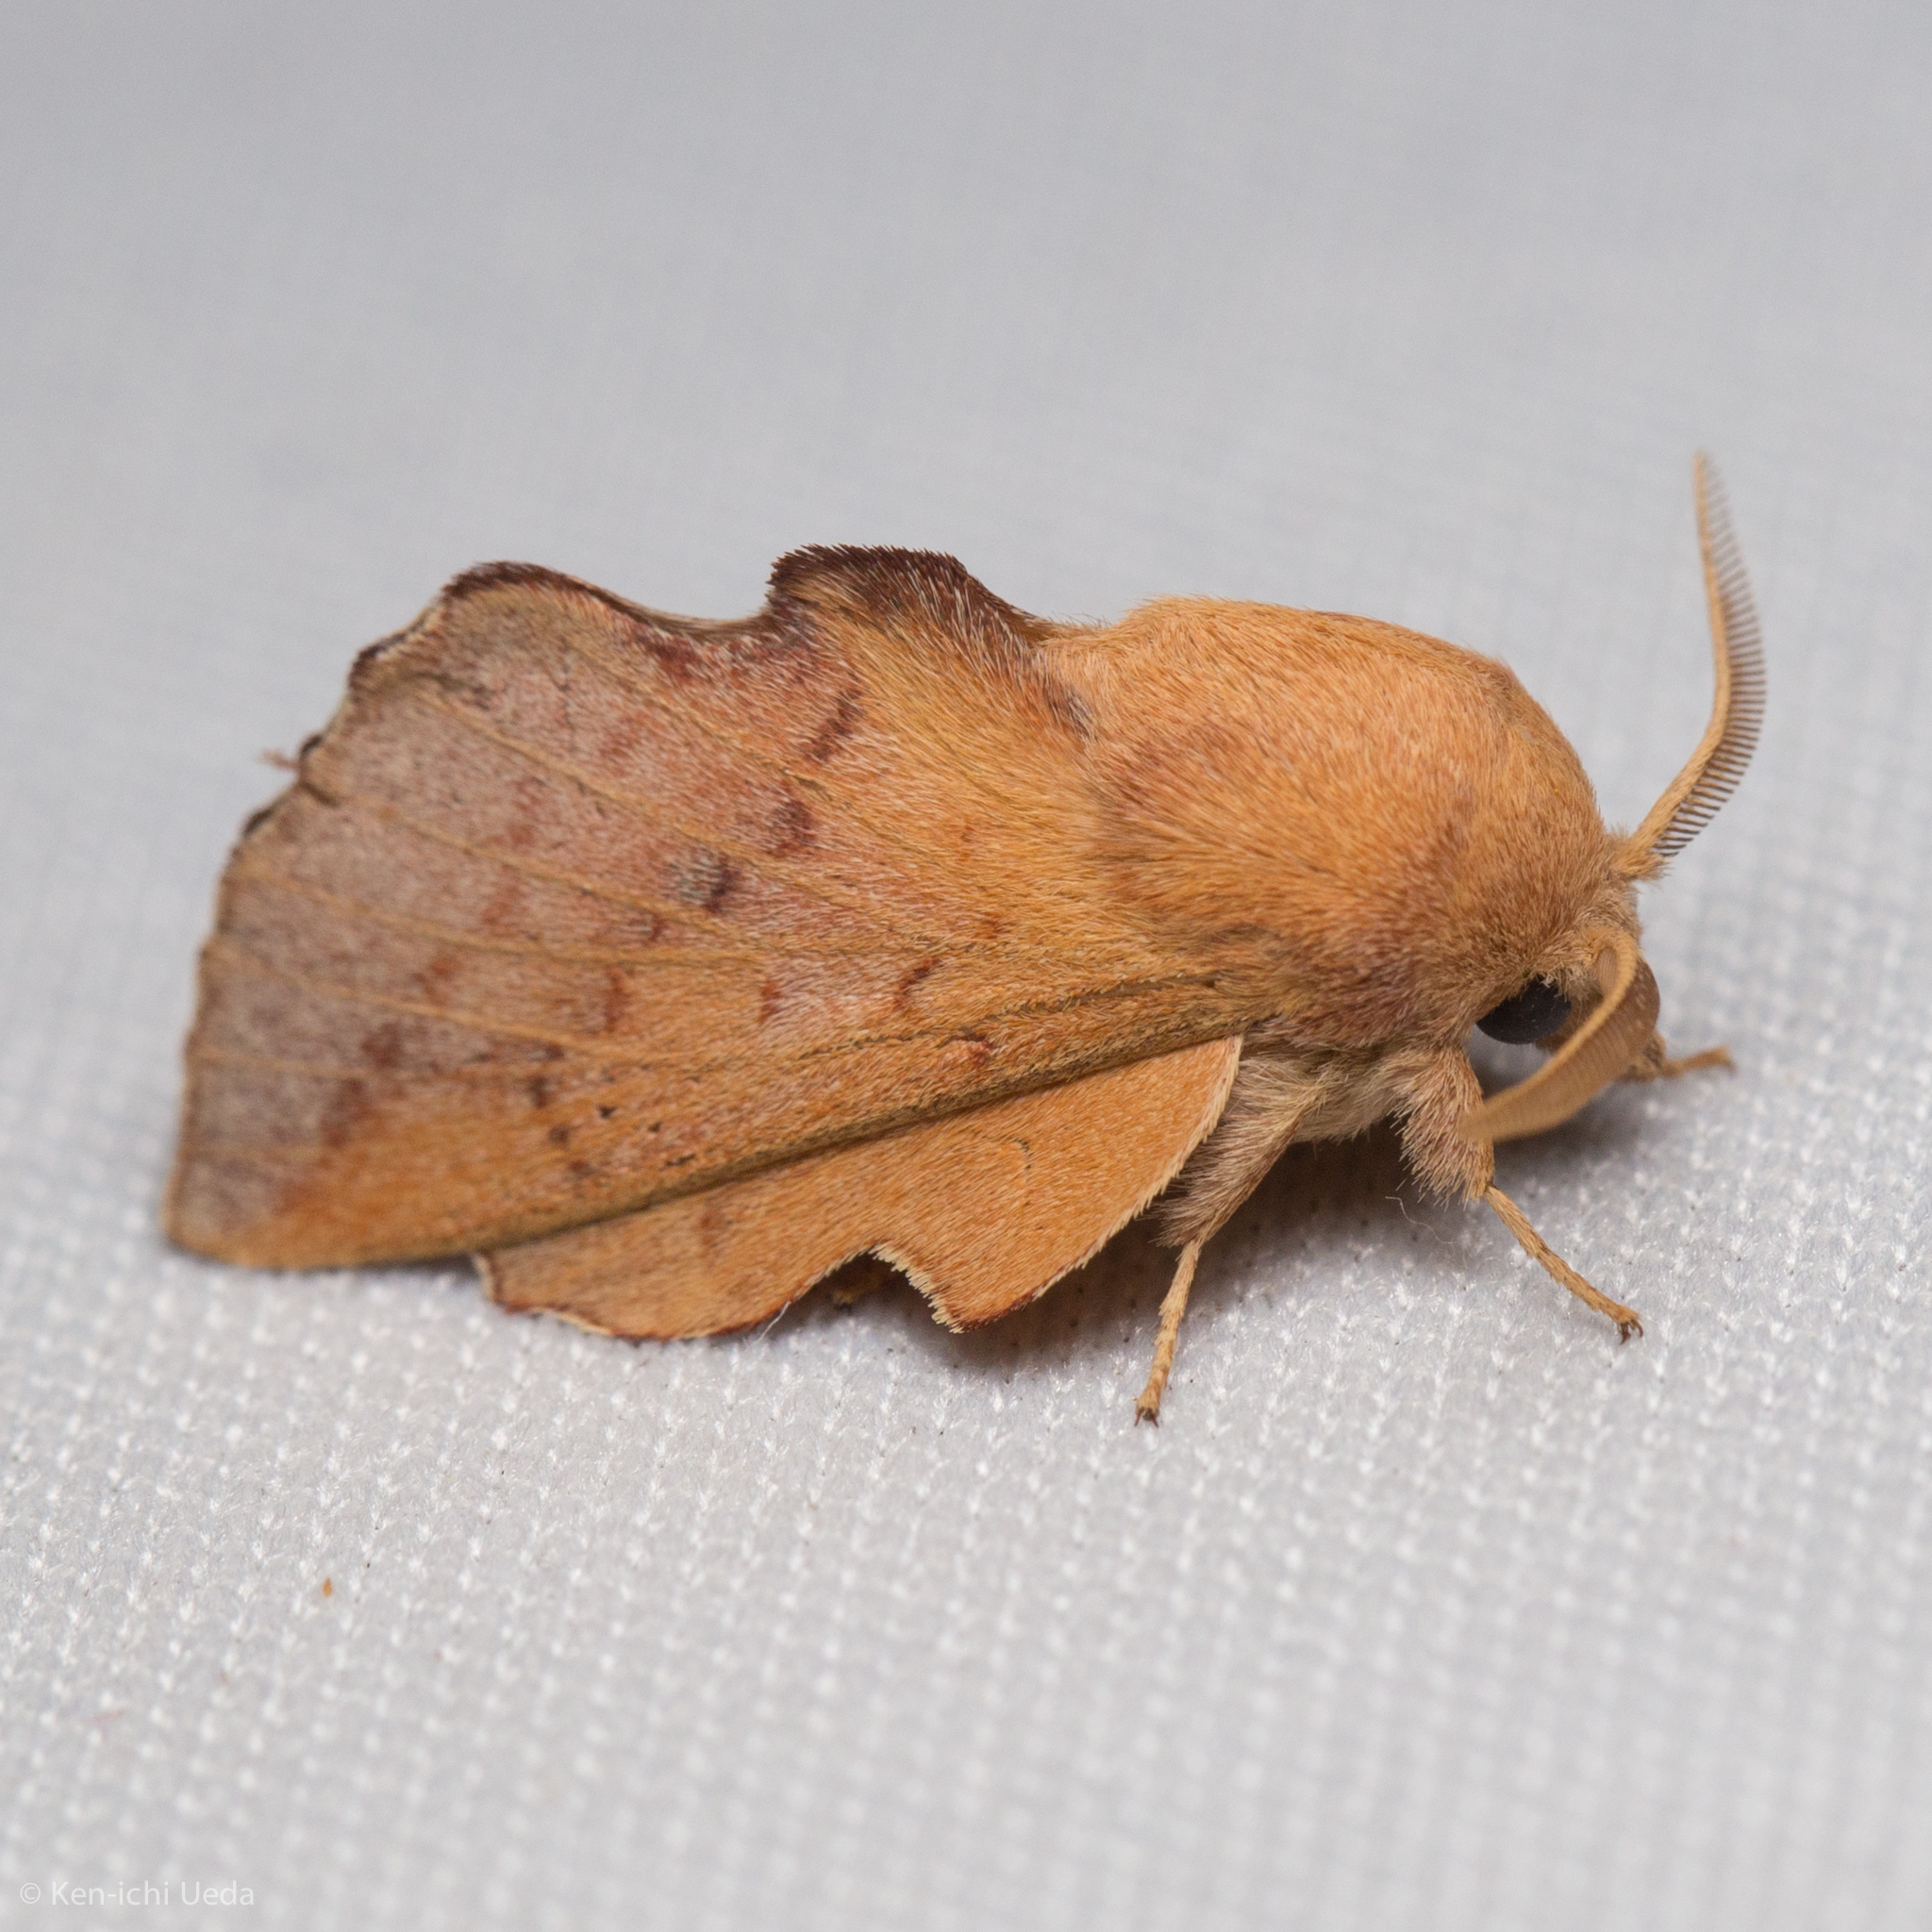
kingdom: Animalia
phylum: Arthropoda
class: Insecta
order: Lepidoptera
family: Lasiocampidae
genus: Phyllodesma
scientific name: Phyllodesma americana
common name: American lappet moth
